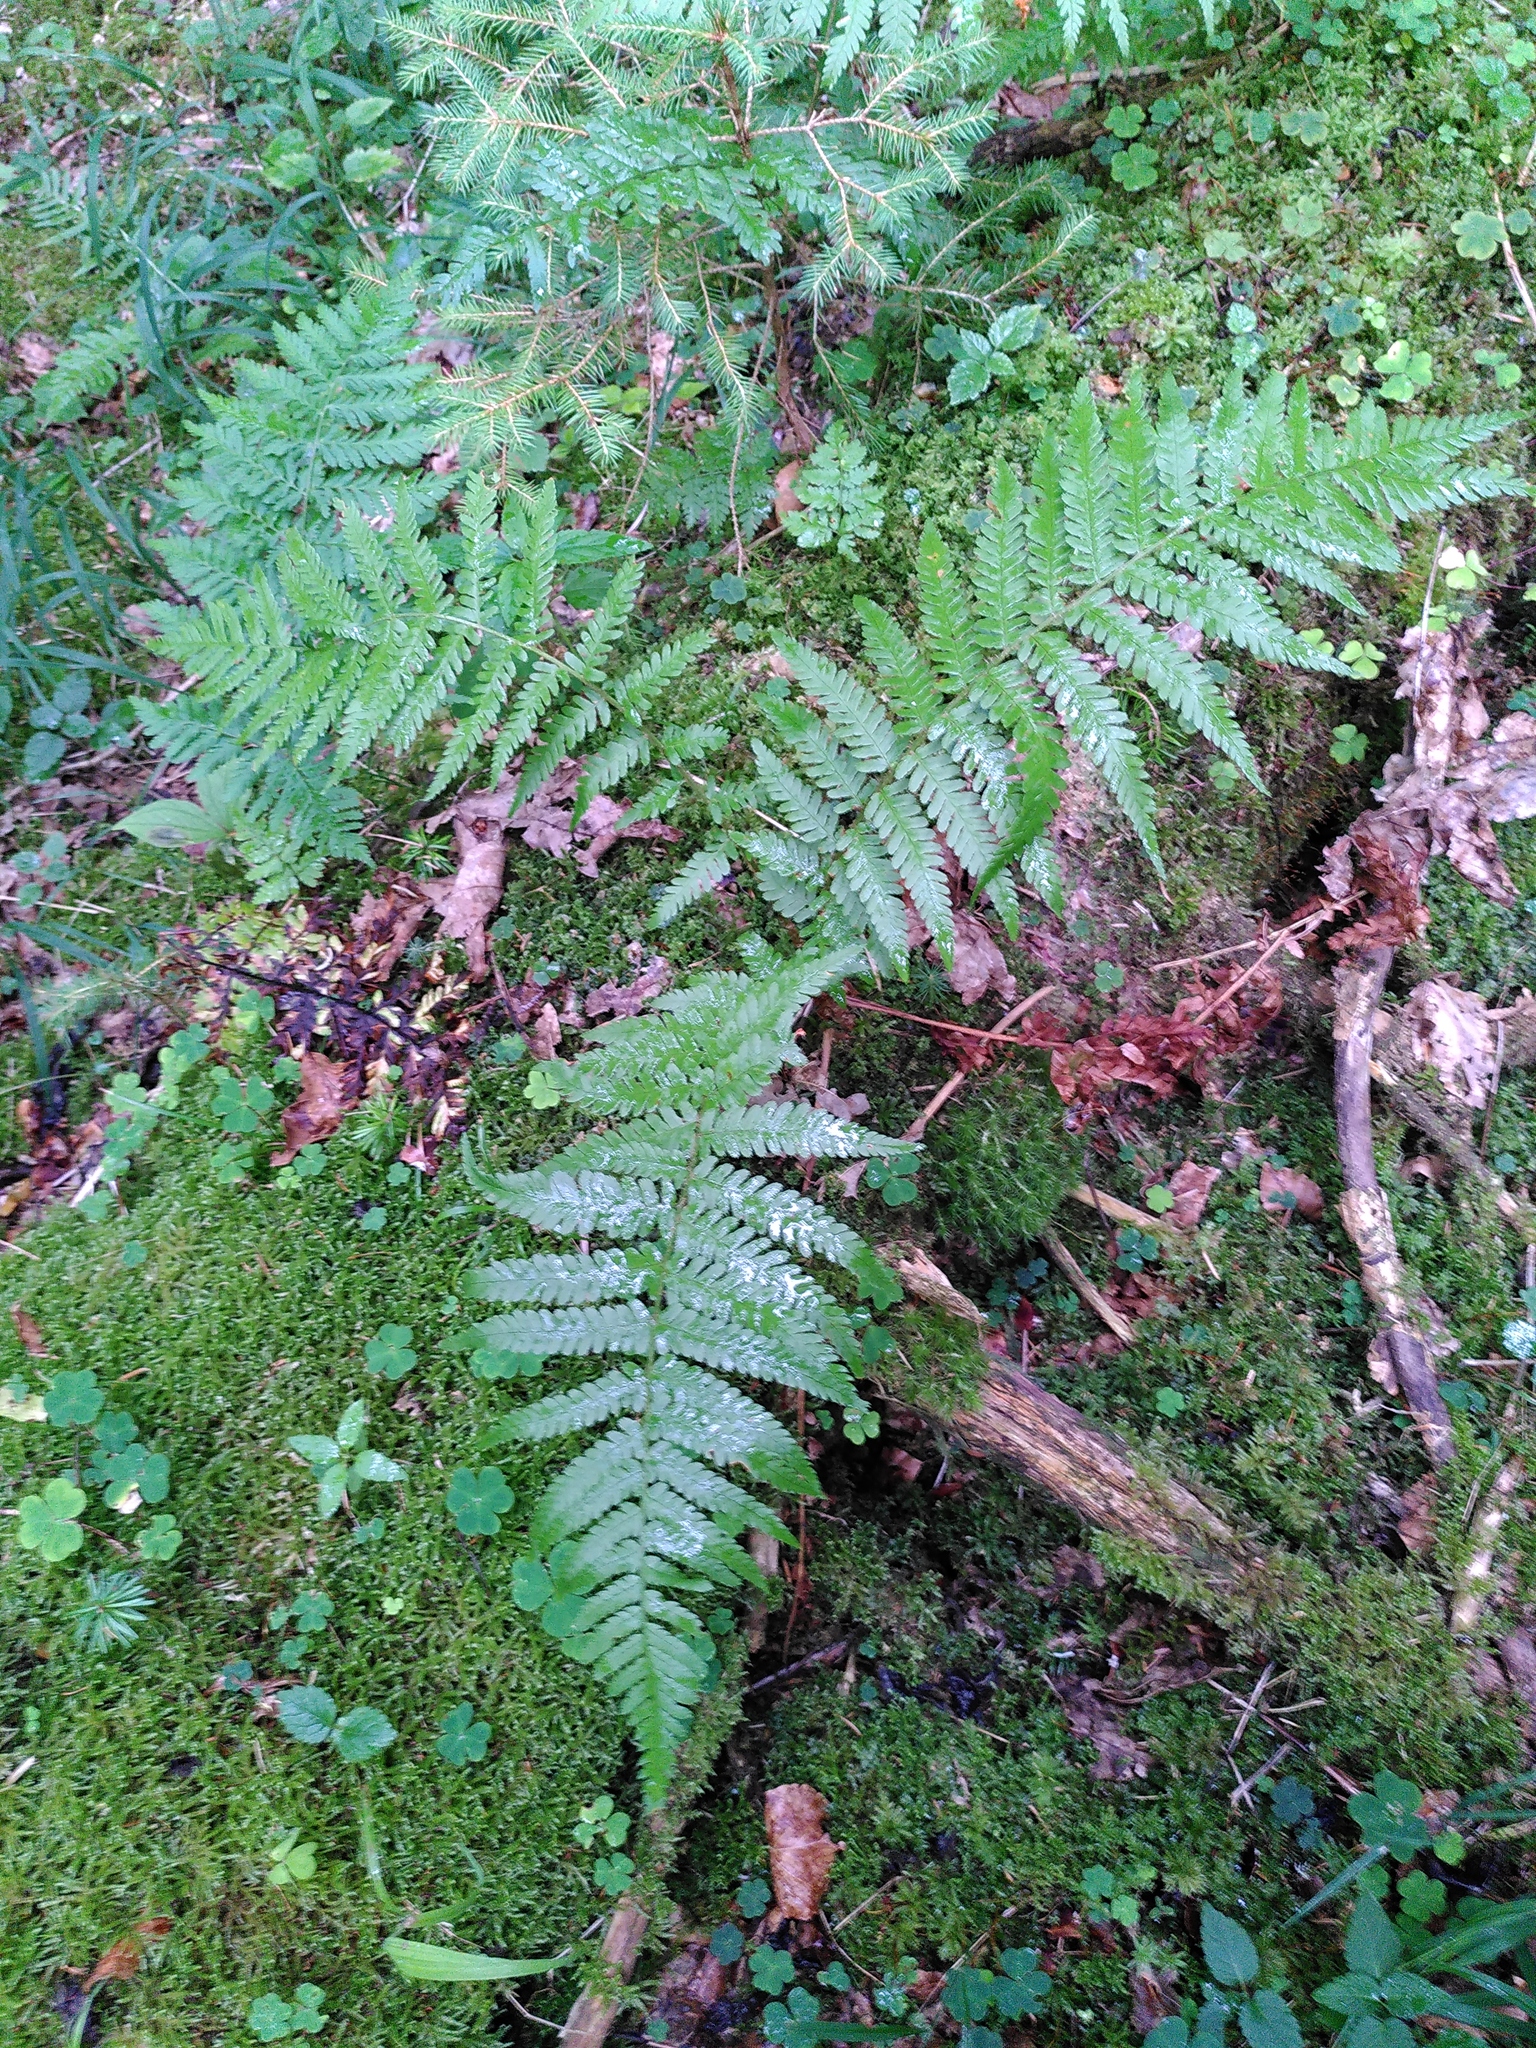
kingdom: Plantae
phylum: Tracheophyta
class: Polypodiopsida
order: Polypodiales
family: Dryopteridaceae
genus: Dryopteris
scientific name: Dryopteris filix-mas
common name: Male fern
